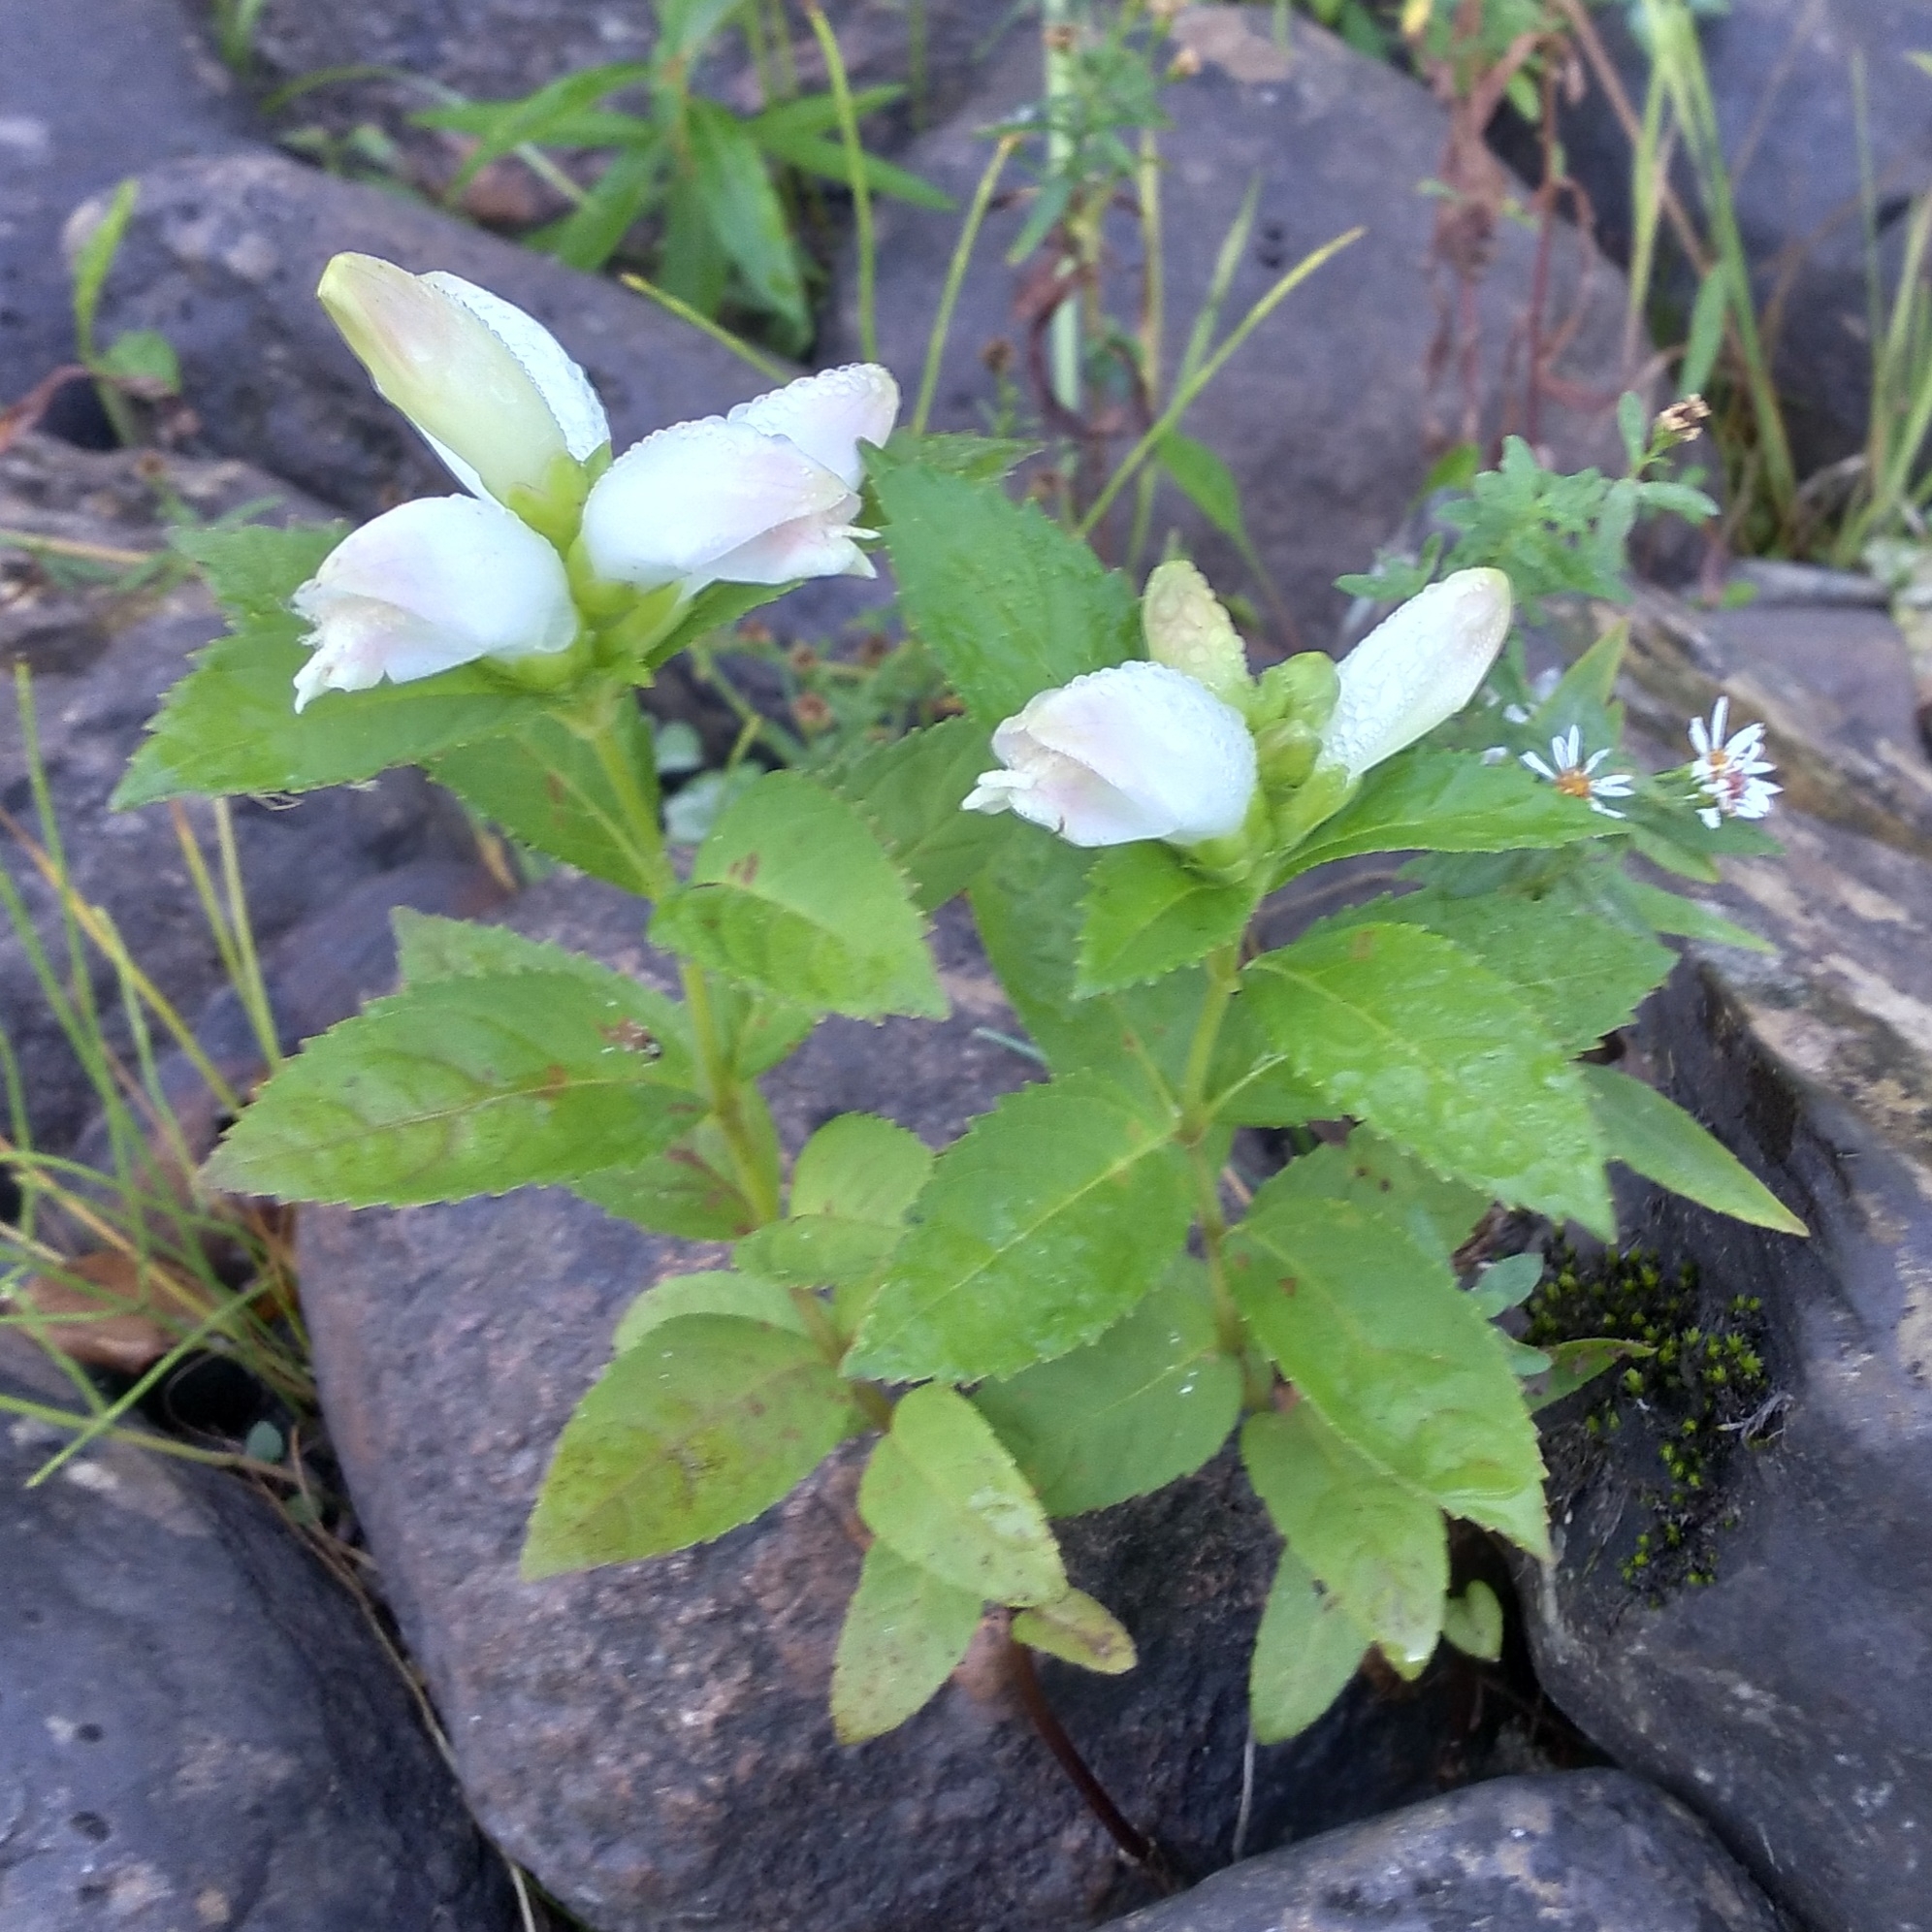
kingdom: Plantae
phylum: Tracheophyta
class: Magnoliopsida
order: Lamiales
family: Plantaginaceae
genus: Chelone
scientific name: Chelone glabra
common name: Snakehead
